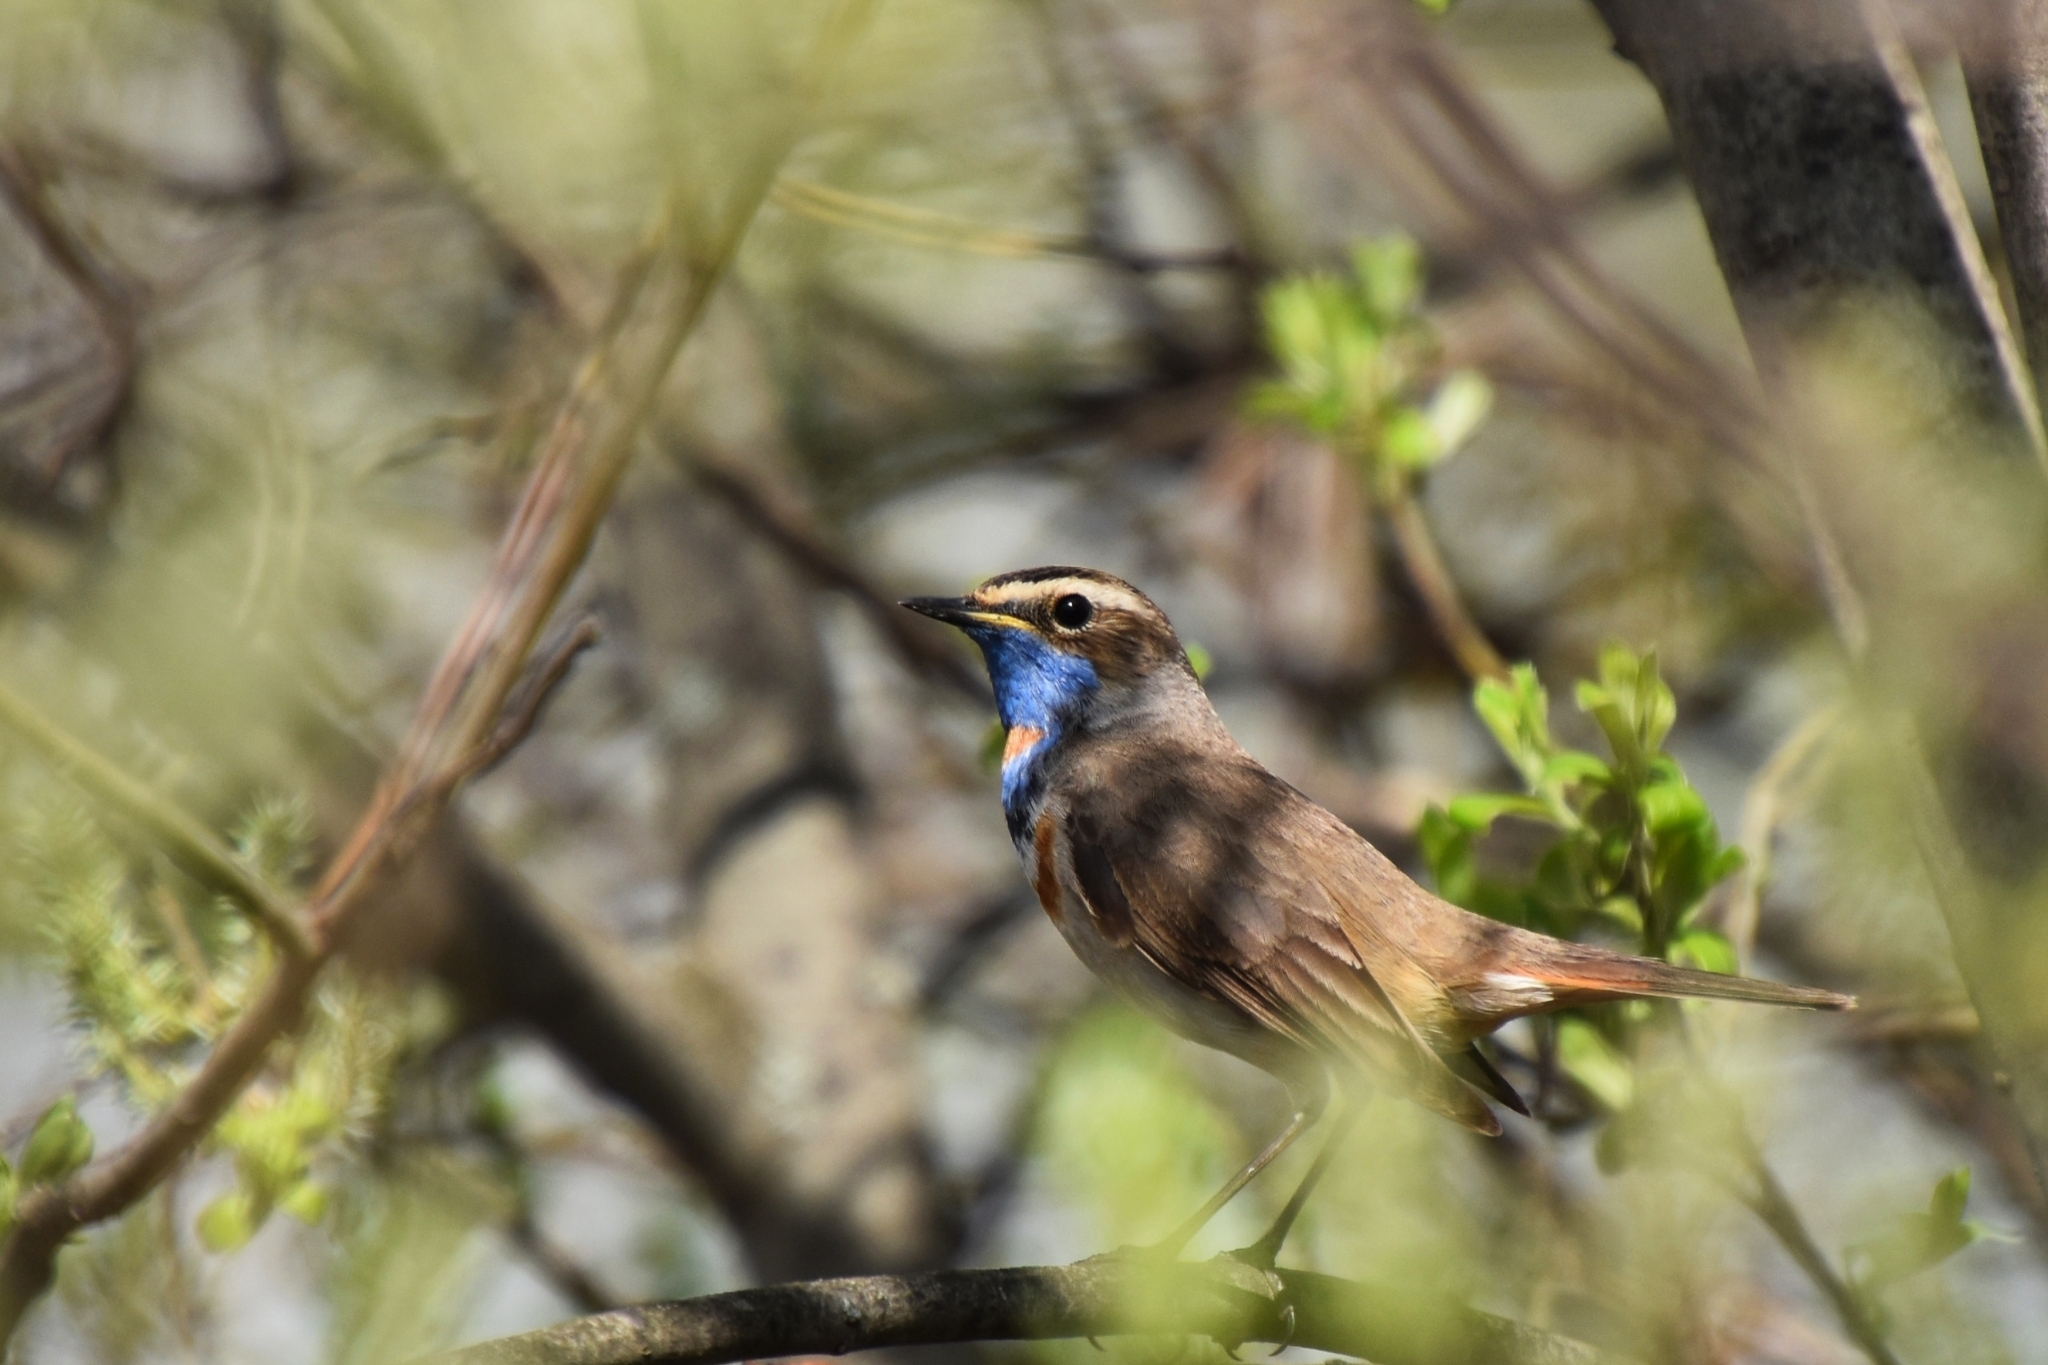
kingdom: Animalia
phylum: Chordata
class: Aves
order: Passeriformes
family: Muscicapidae
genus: Luscinia
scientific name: Luscinia svecica
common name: Bluethroat
